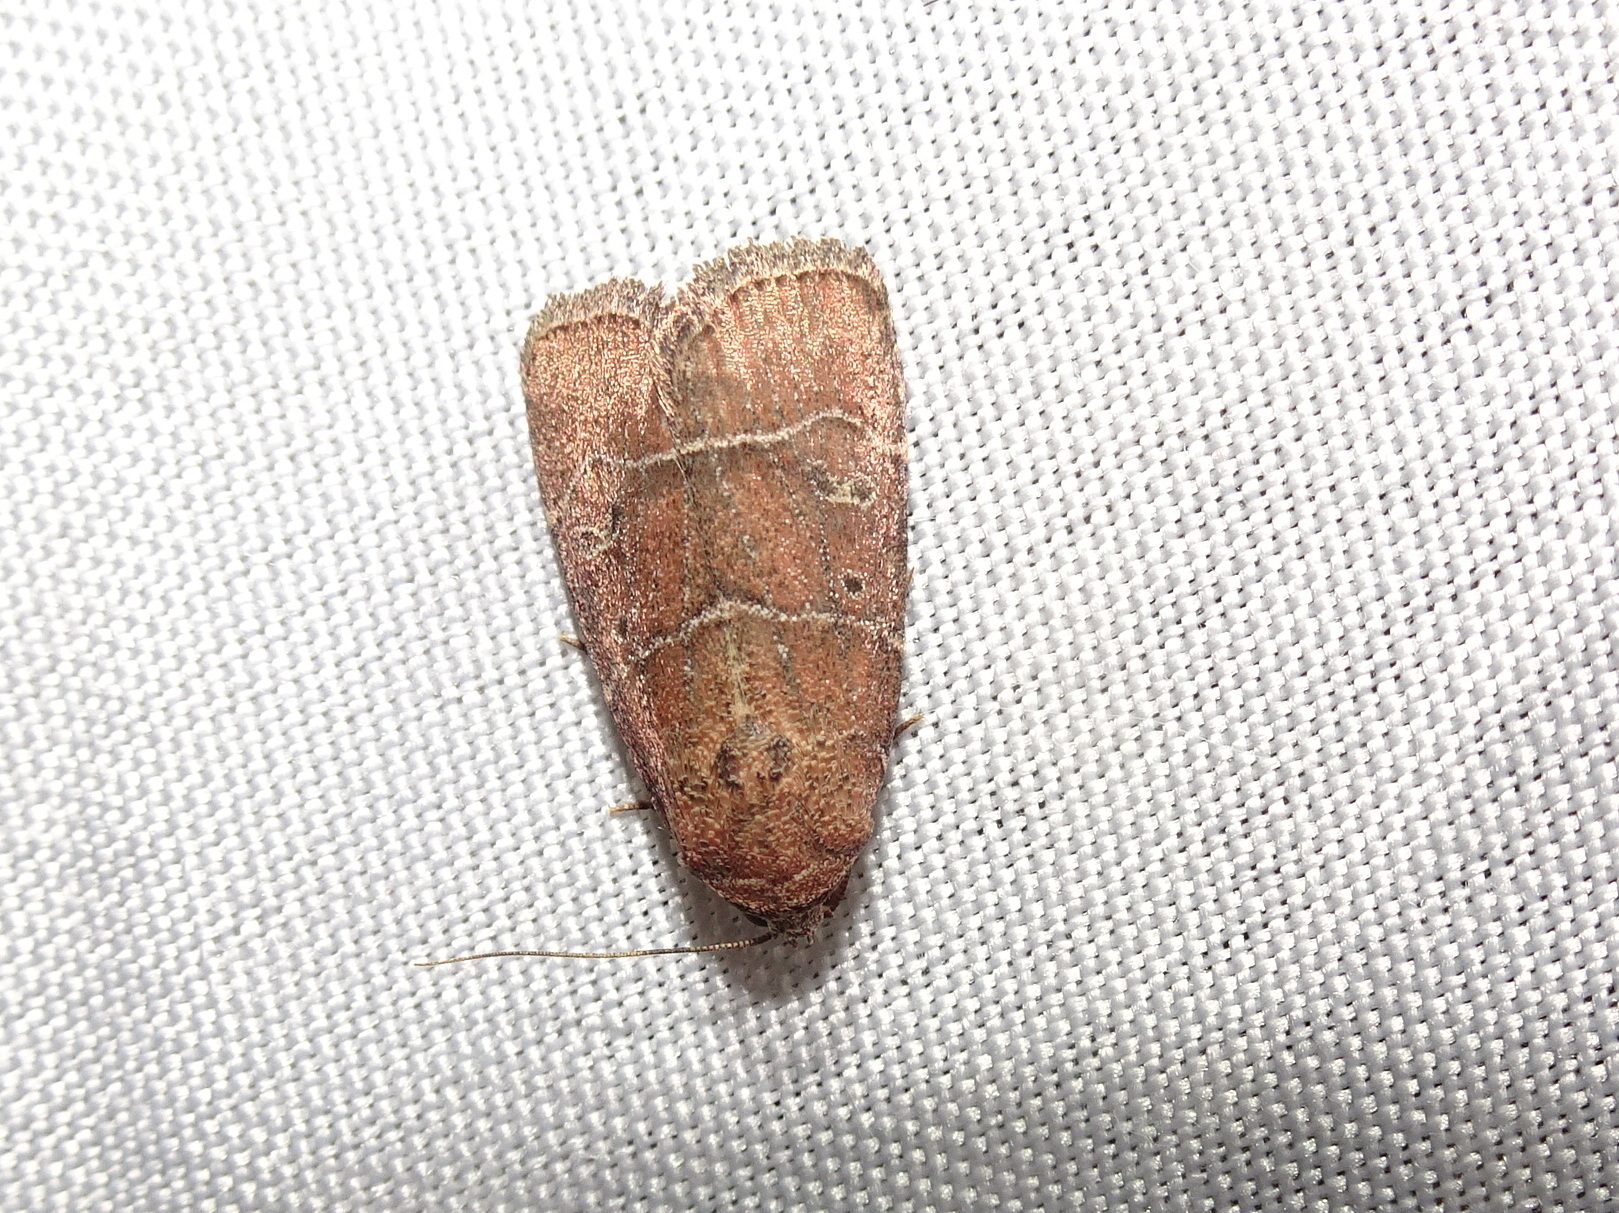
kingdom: Animalia
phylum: Arthropoda
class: Insecta
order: Lepidoptera
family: Noctuidae
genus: Elaphria
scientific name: Elaphria grata
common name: Grateful midget moth
